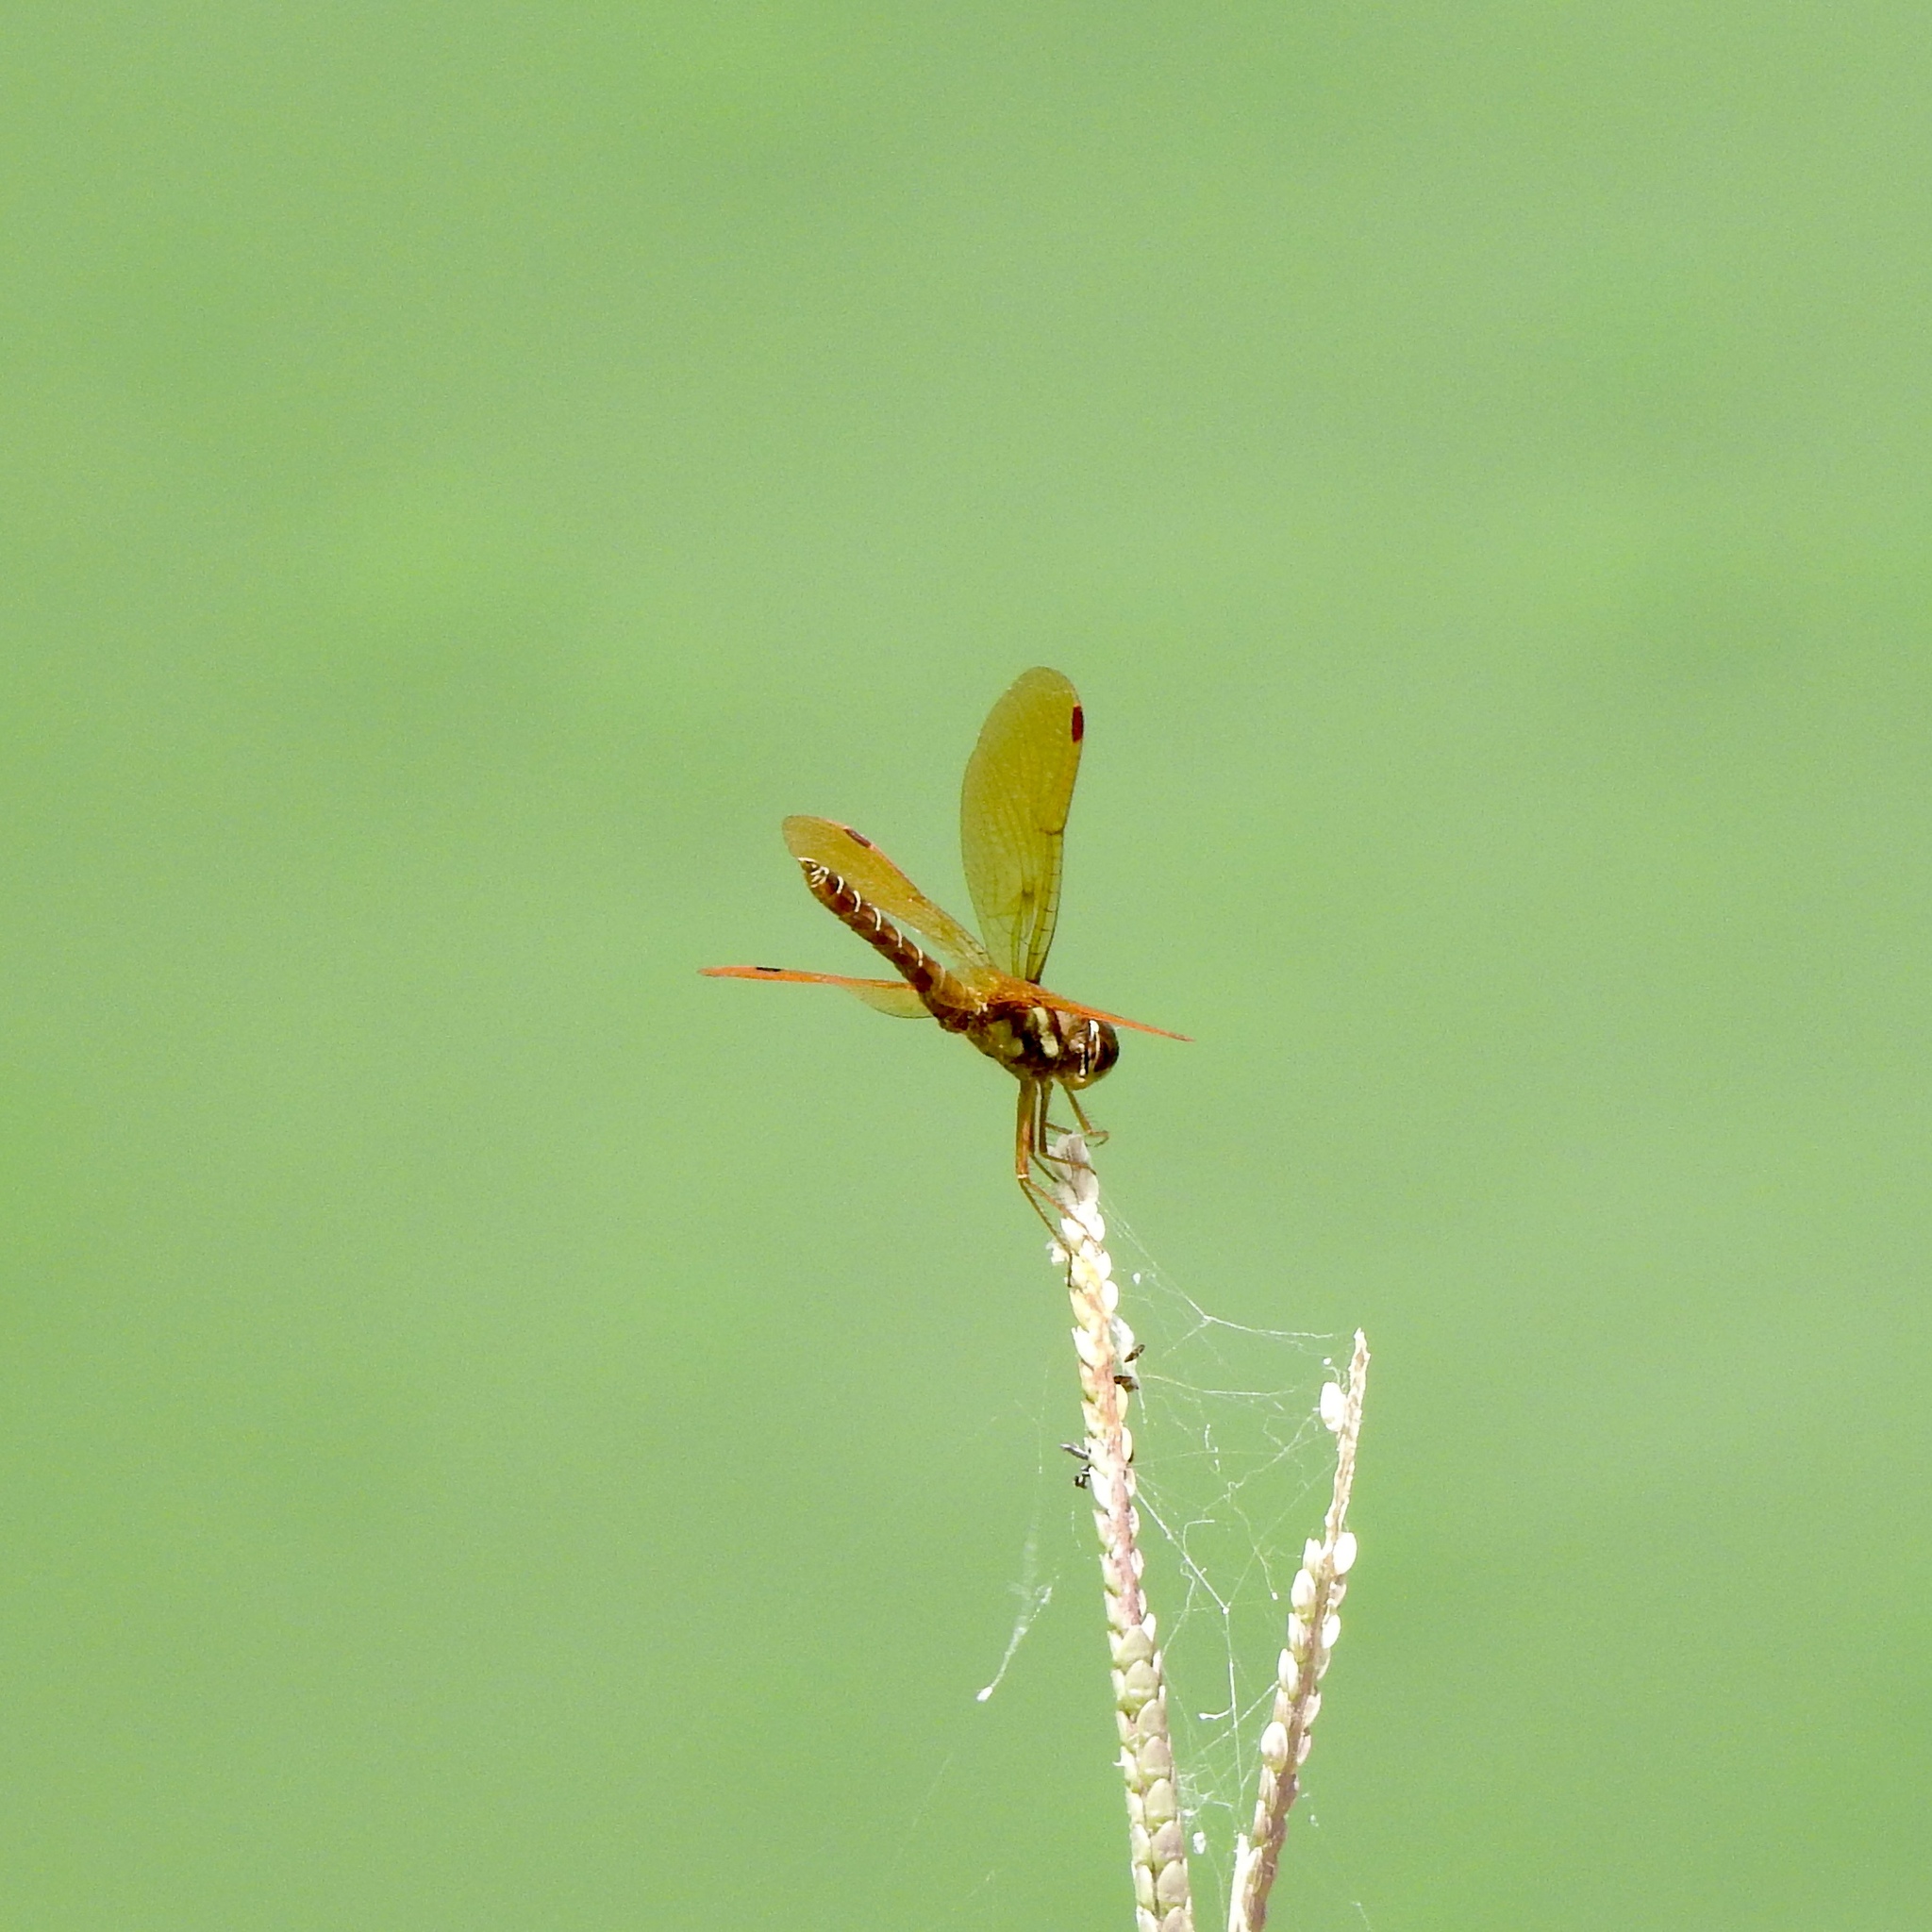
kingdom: Animalia
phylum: Arthropoda
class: Insecta
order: Odonata
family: Libellulidae
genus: Perithemis
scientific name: Perithemis tenera
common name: Eastern amberwing
